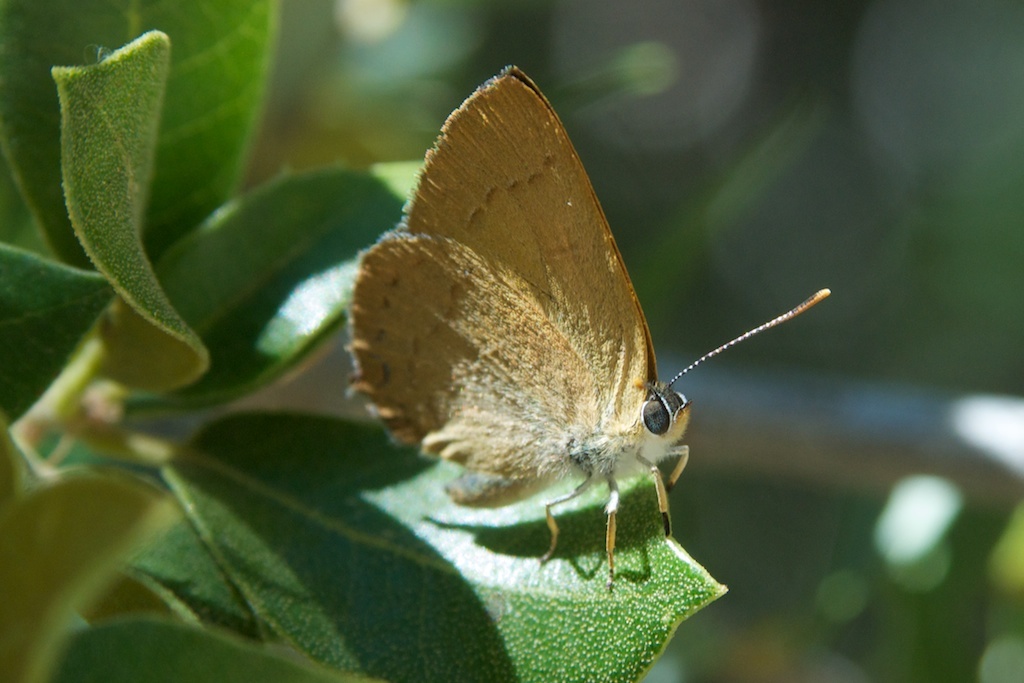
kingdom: Animalia
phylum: Arthropoda
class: Insecta
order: Lepidoptera
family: Lycaenidae
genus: Habrodais
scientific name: Habrodais grunus
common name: Golden hairstreak
